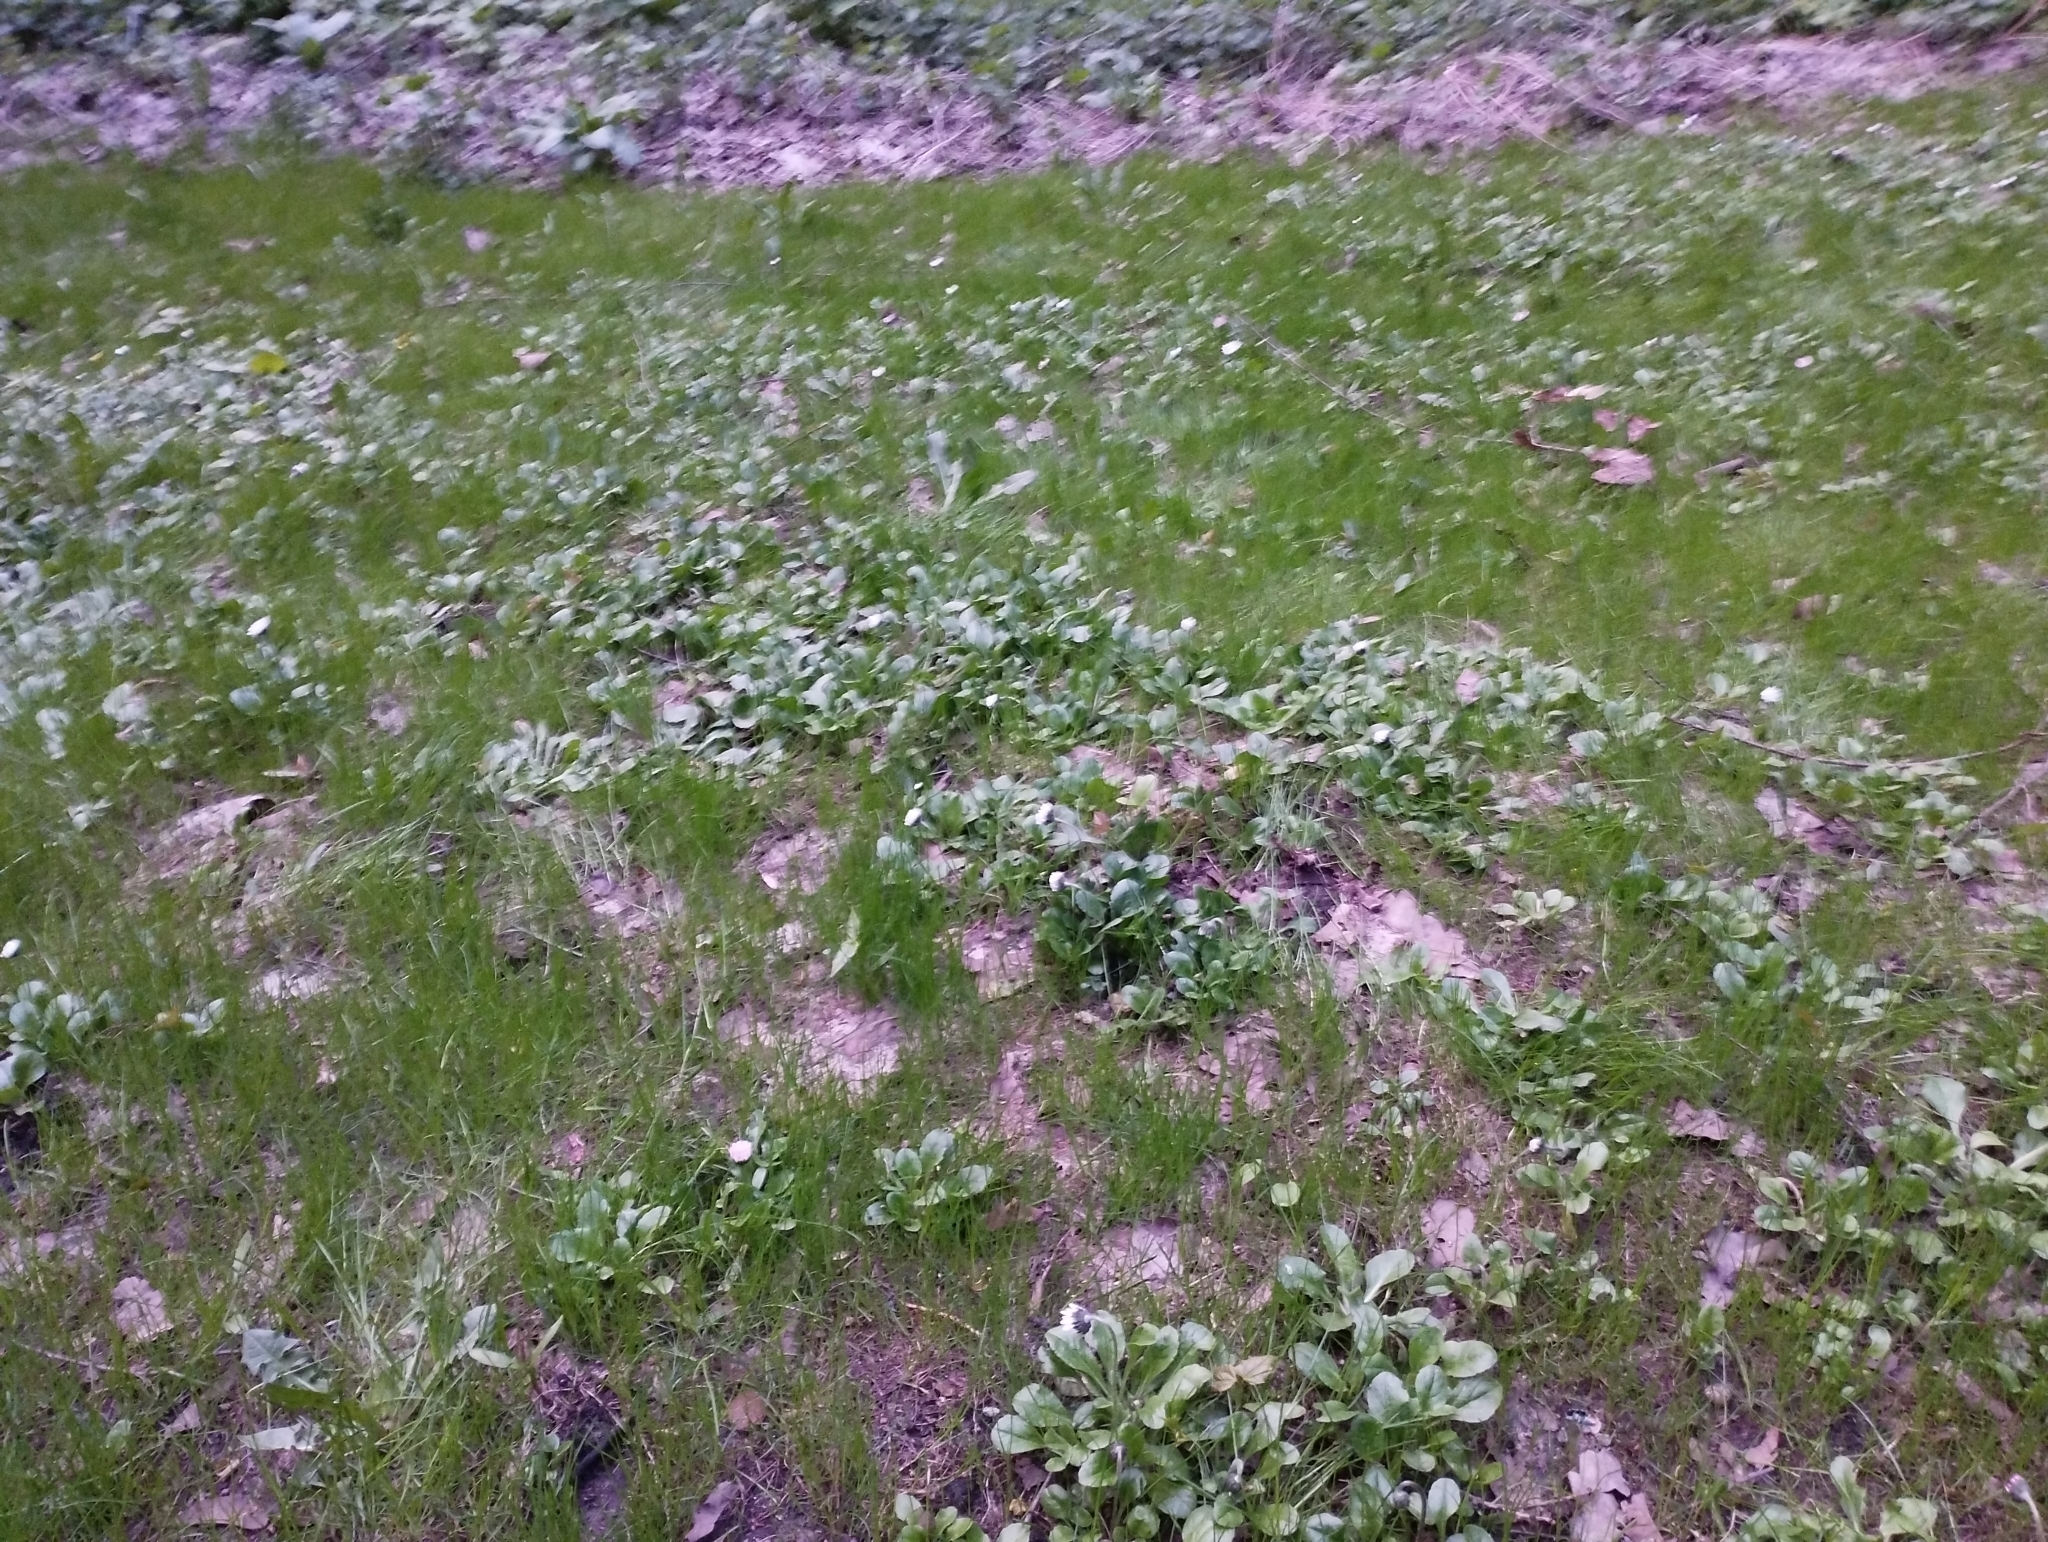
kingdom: Plantae
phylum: Tracheophyta
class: Magnoliopsida
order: Asterales
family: Asteraceae
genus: Bellis
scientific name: Bellis perennis
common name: Lawndaisy
